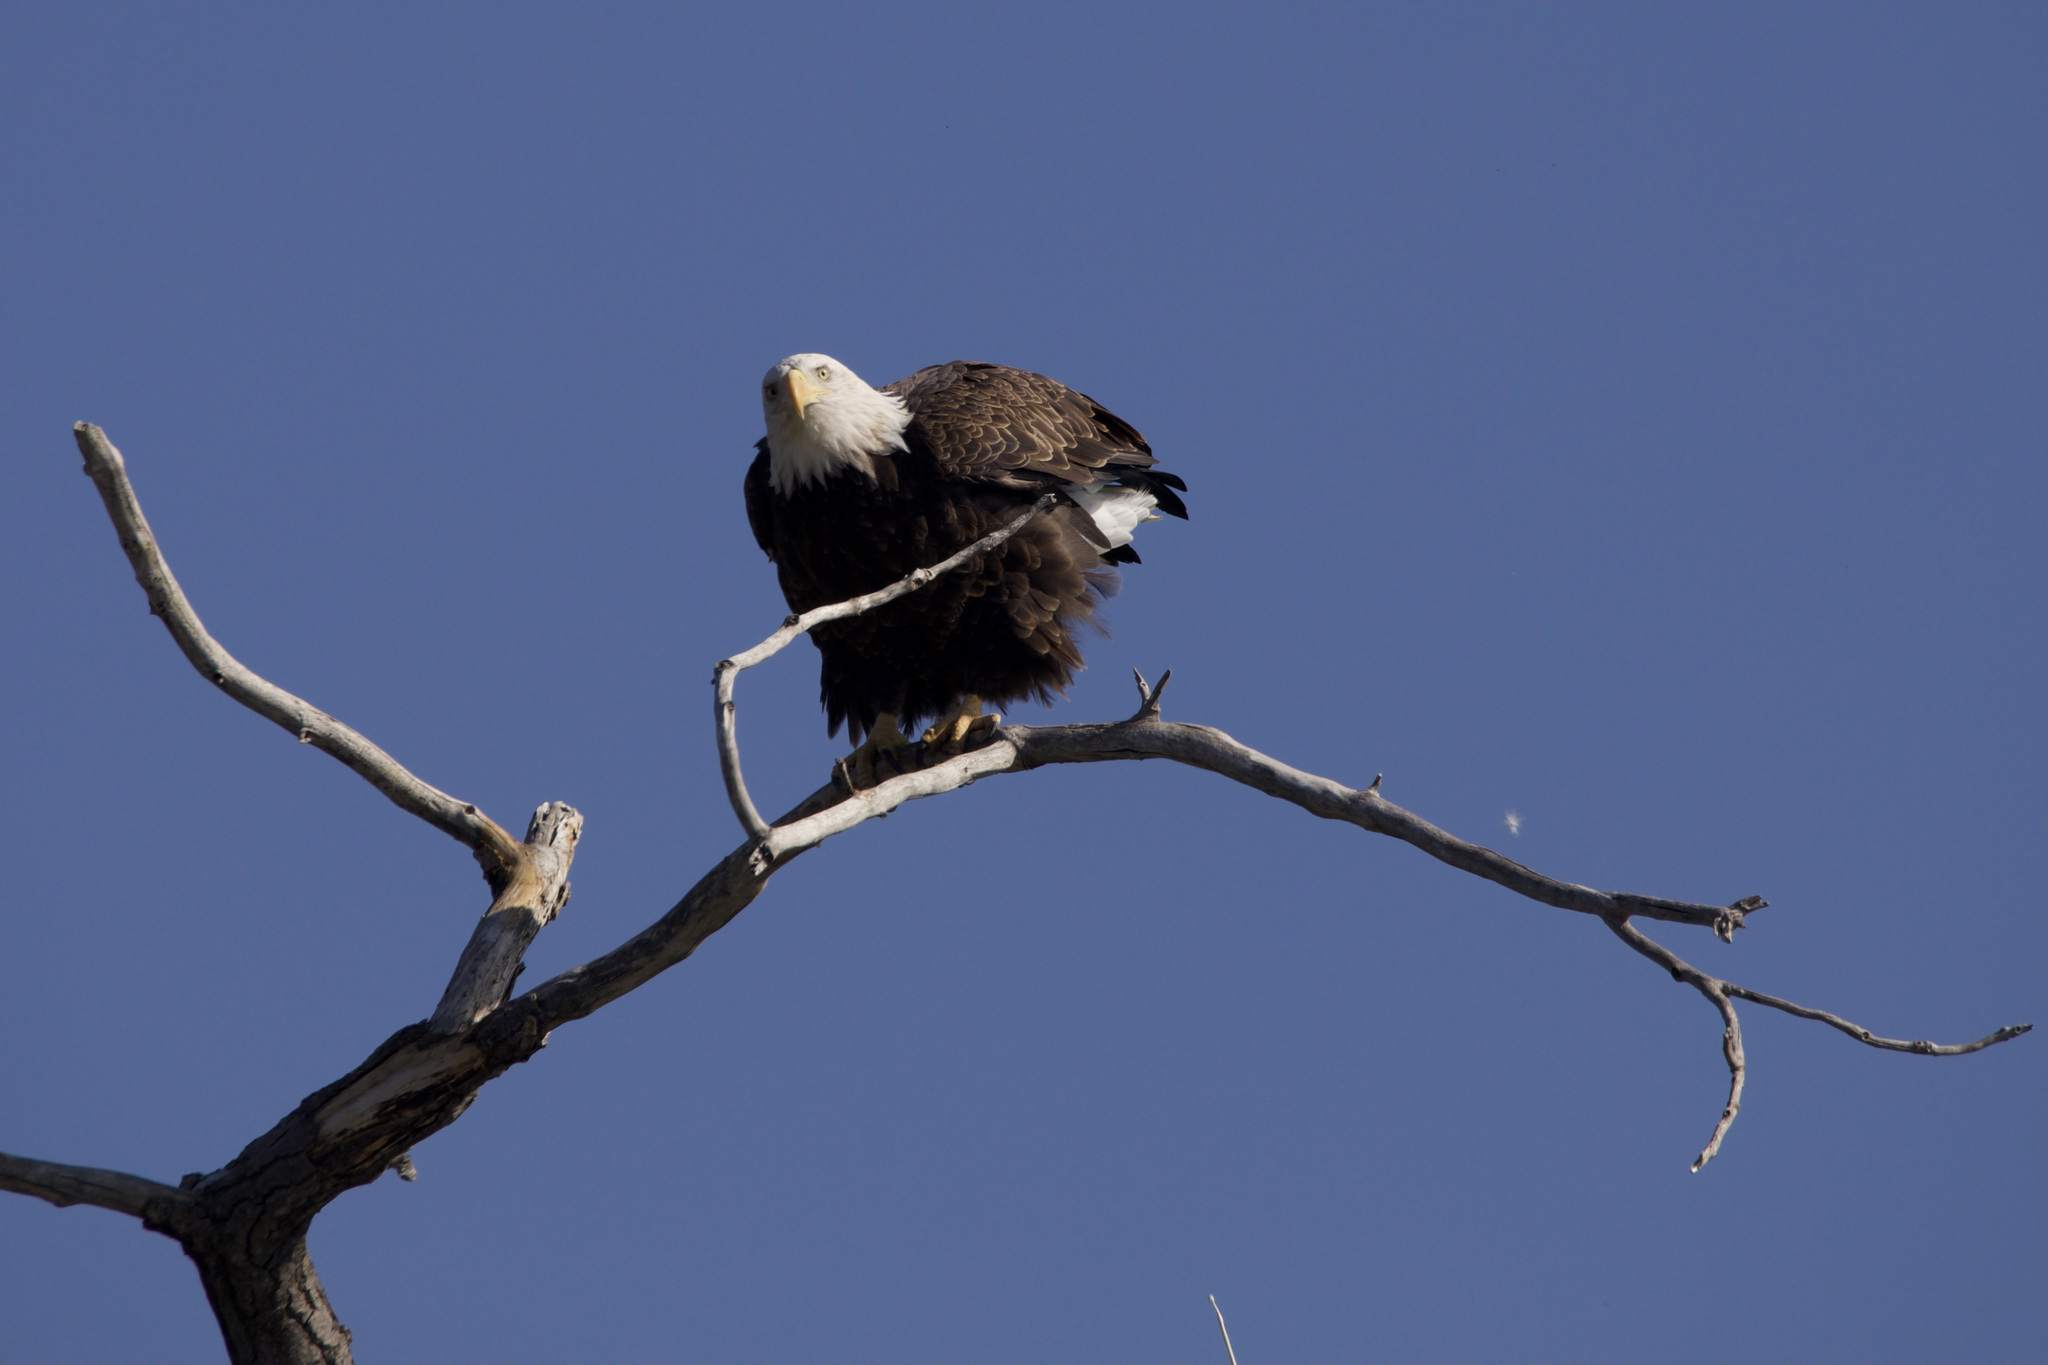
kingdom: Animalia
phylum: Chordata
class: Aves
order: Accipitriformes
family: Accipitridae
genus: Haliaeetus
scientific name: Haliaeetus leucocephalus
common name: Bald eagle
